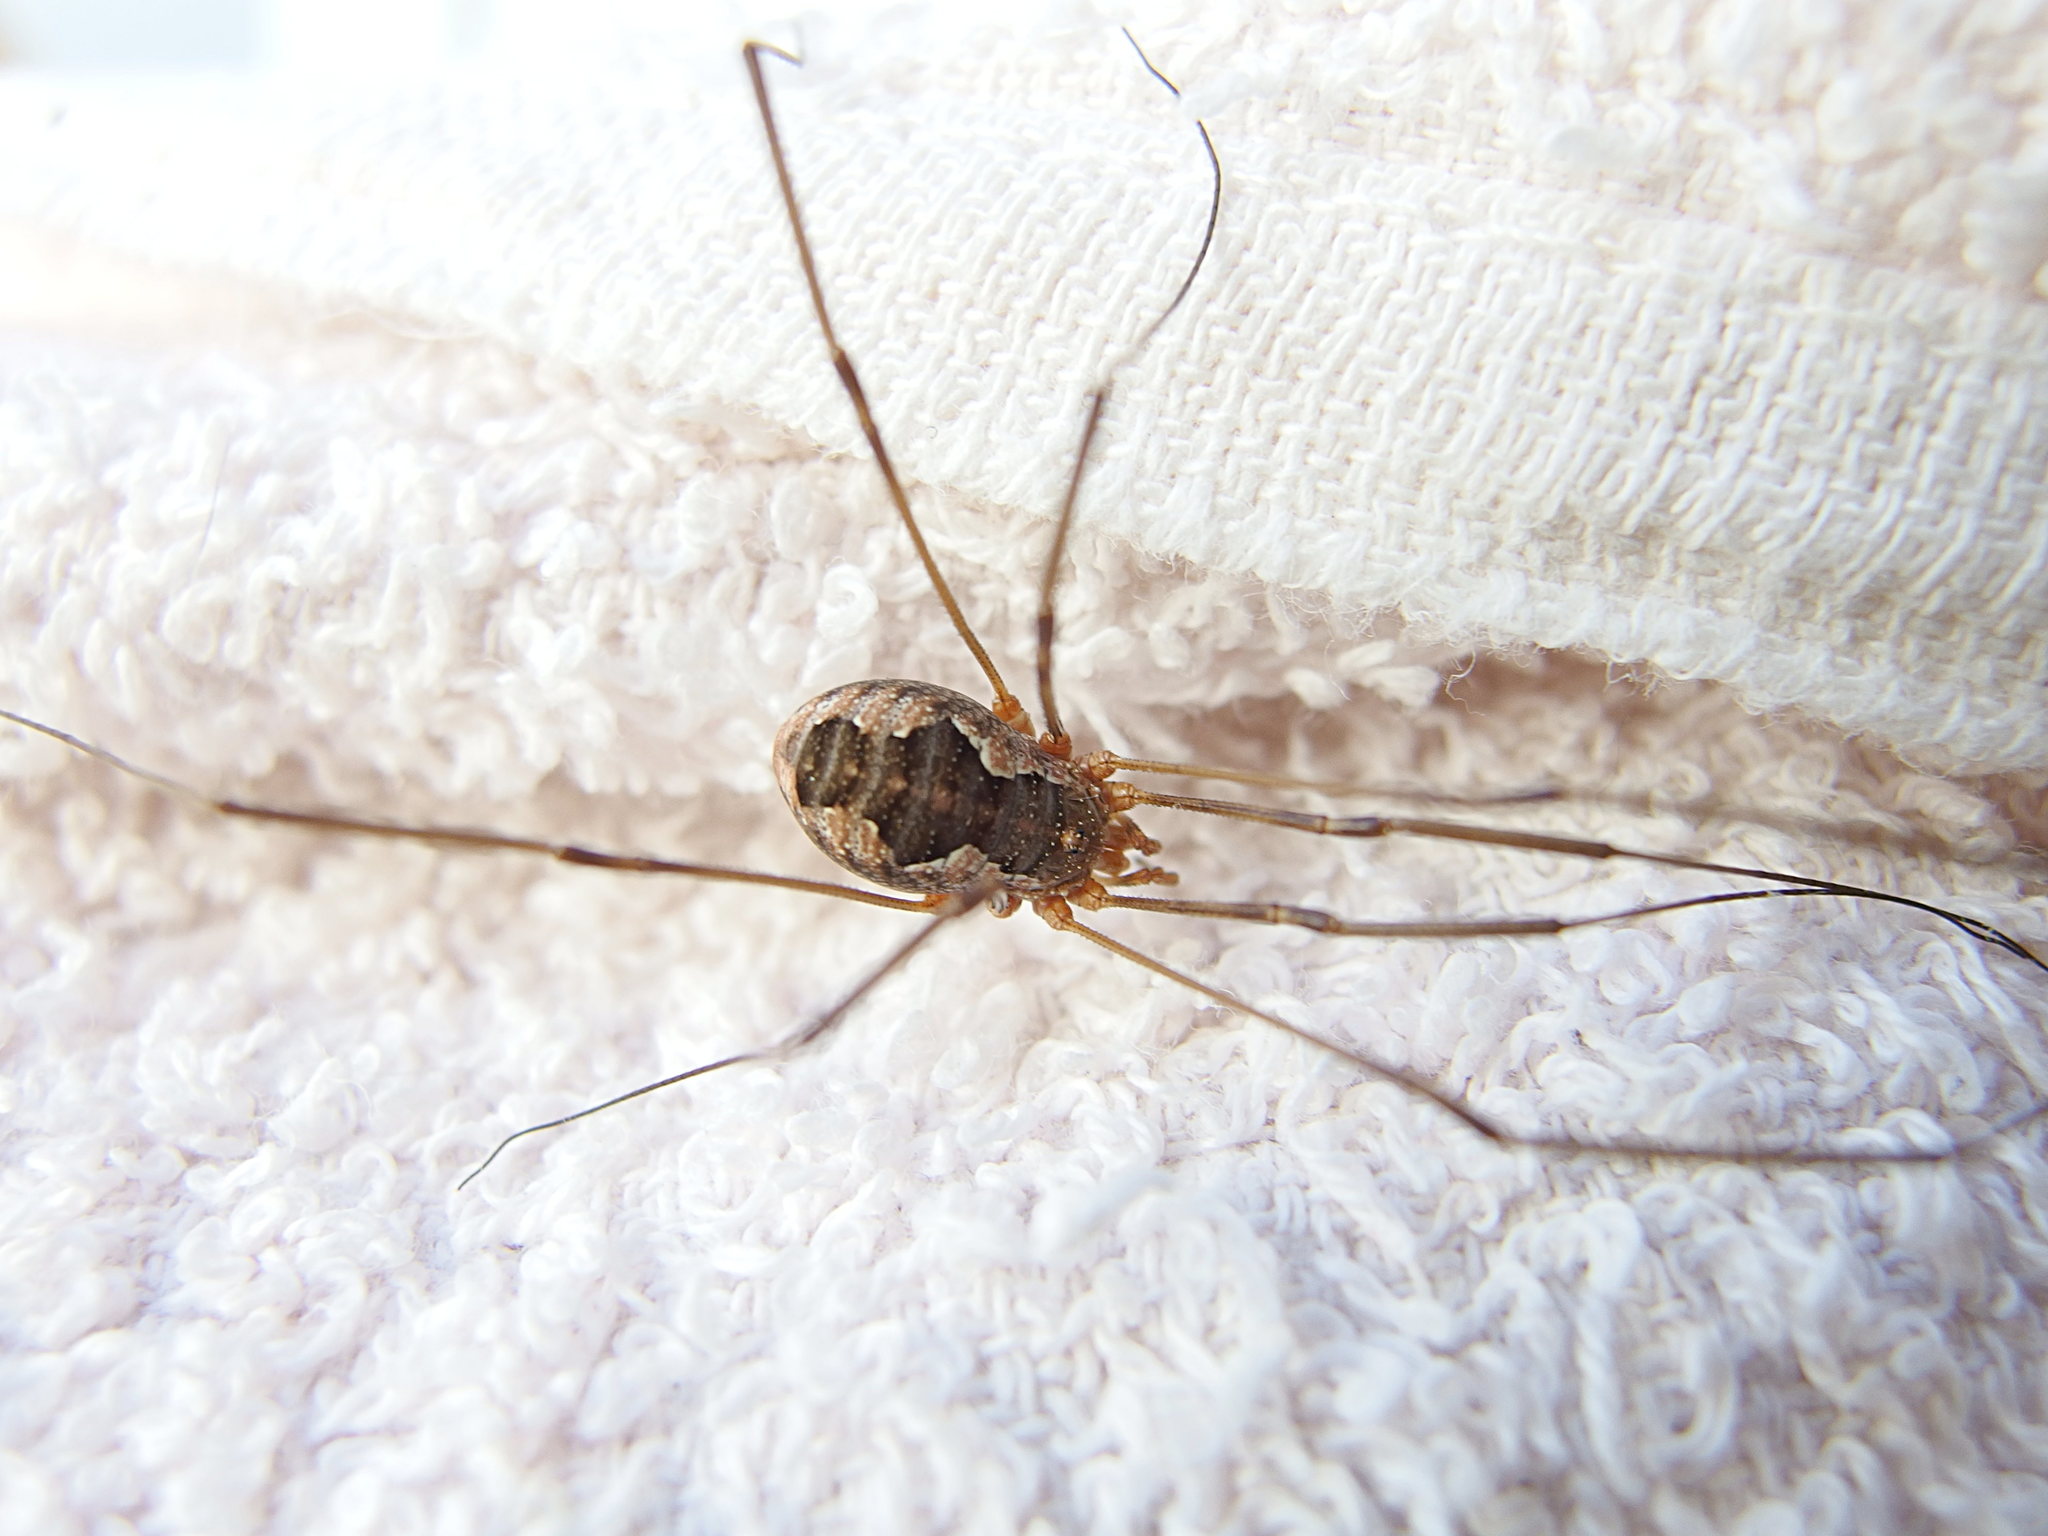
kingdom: Animalia
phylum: Arthropoda
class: Arachnida
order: Opiliones
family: Phalangiidae
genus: Phalangium
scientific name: Phalangium opilio
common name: Daddy longleg
